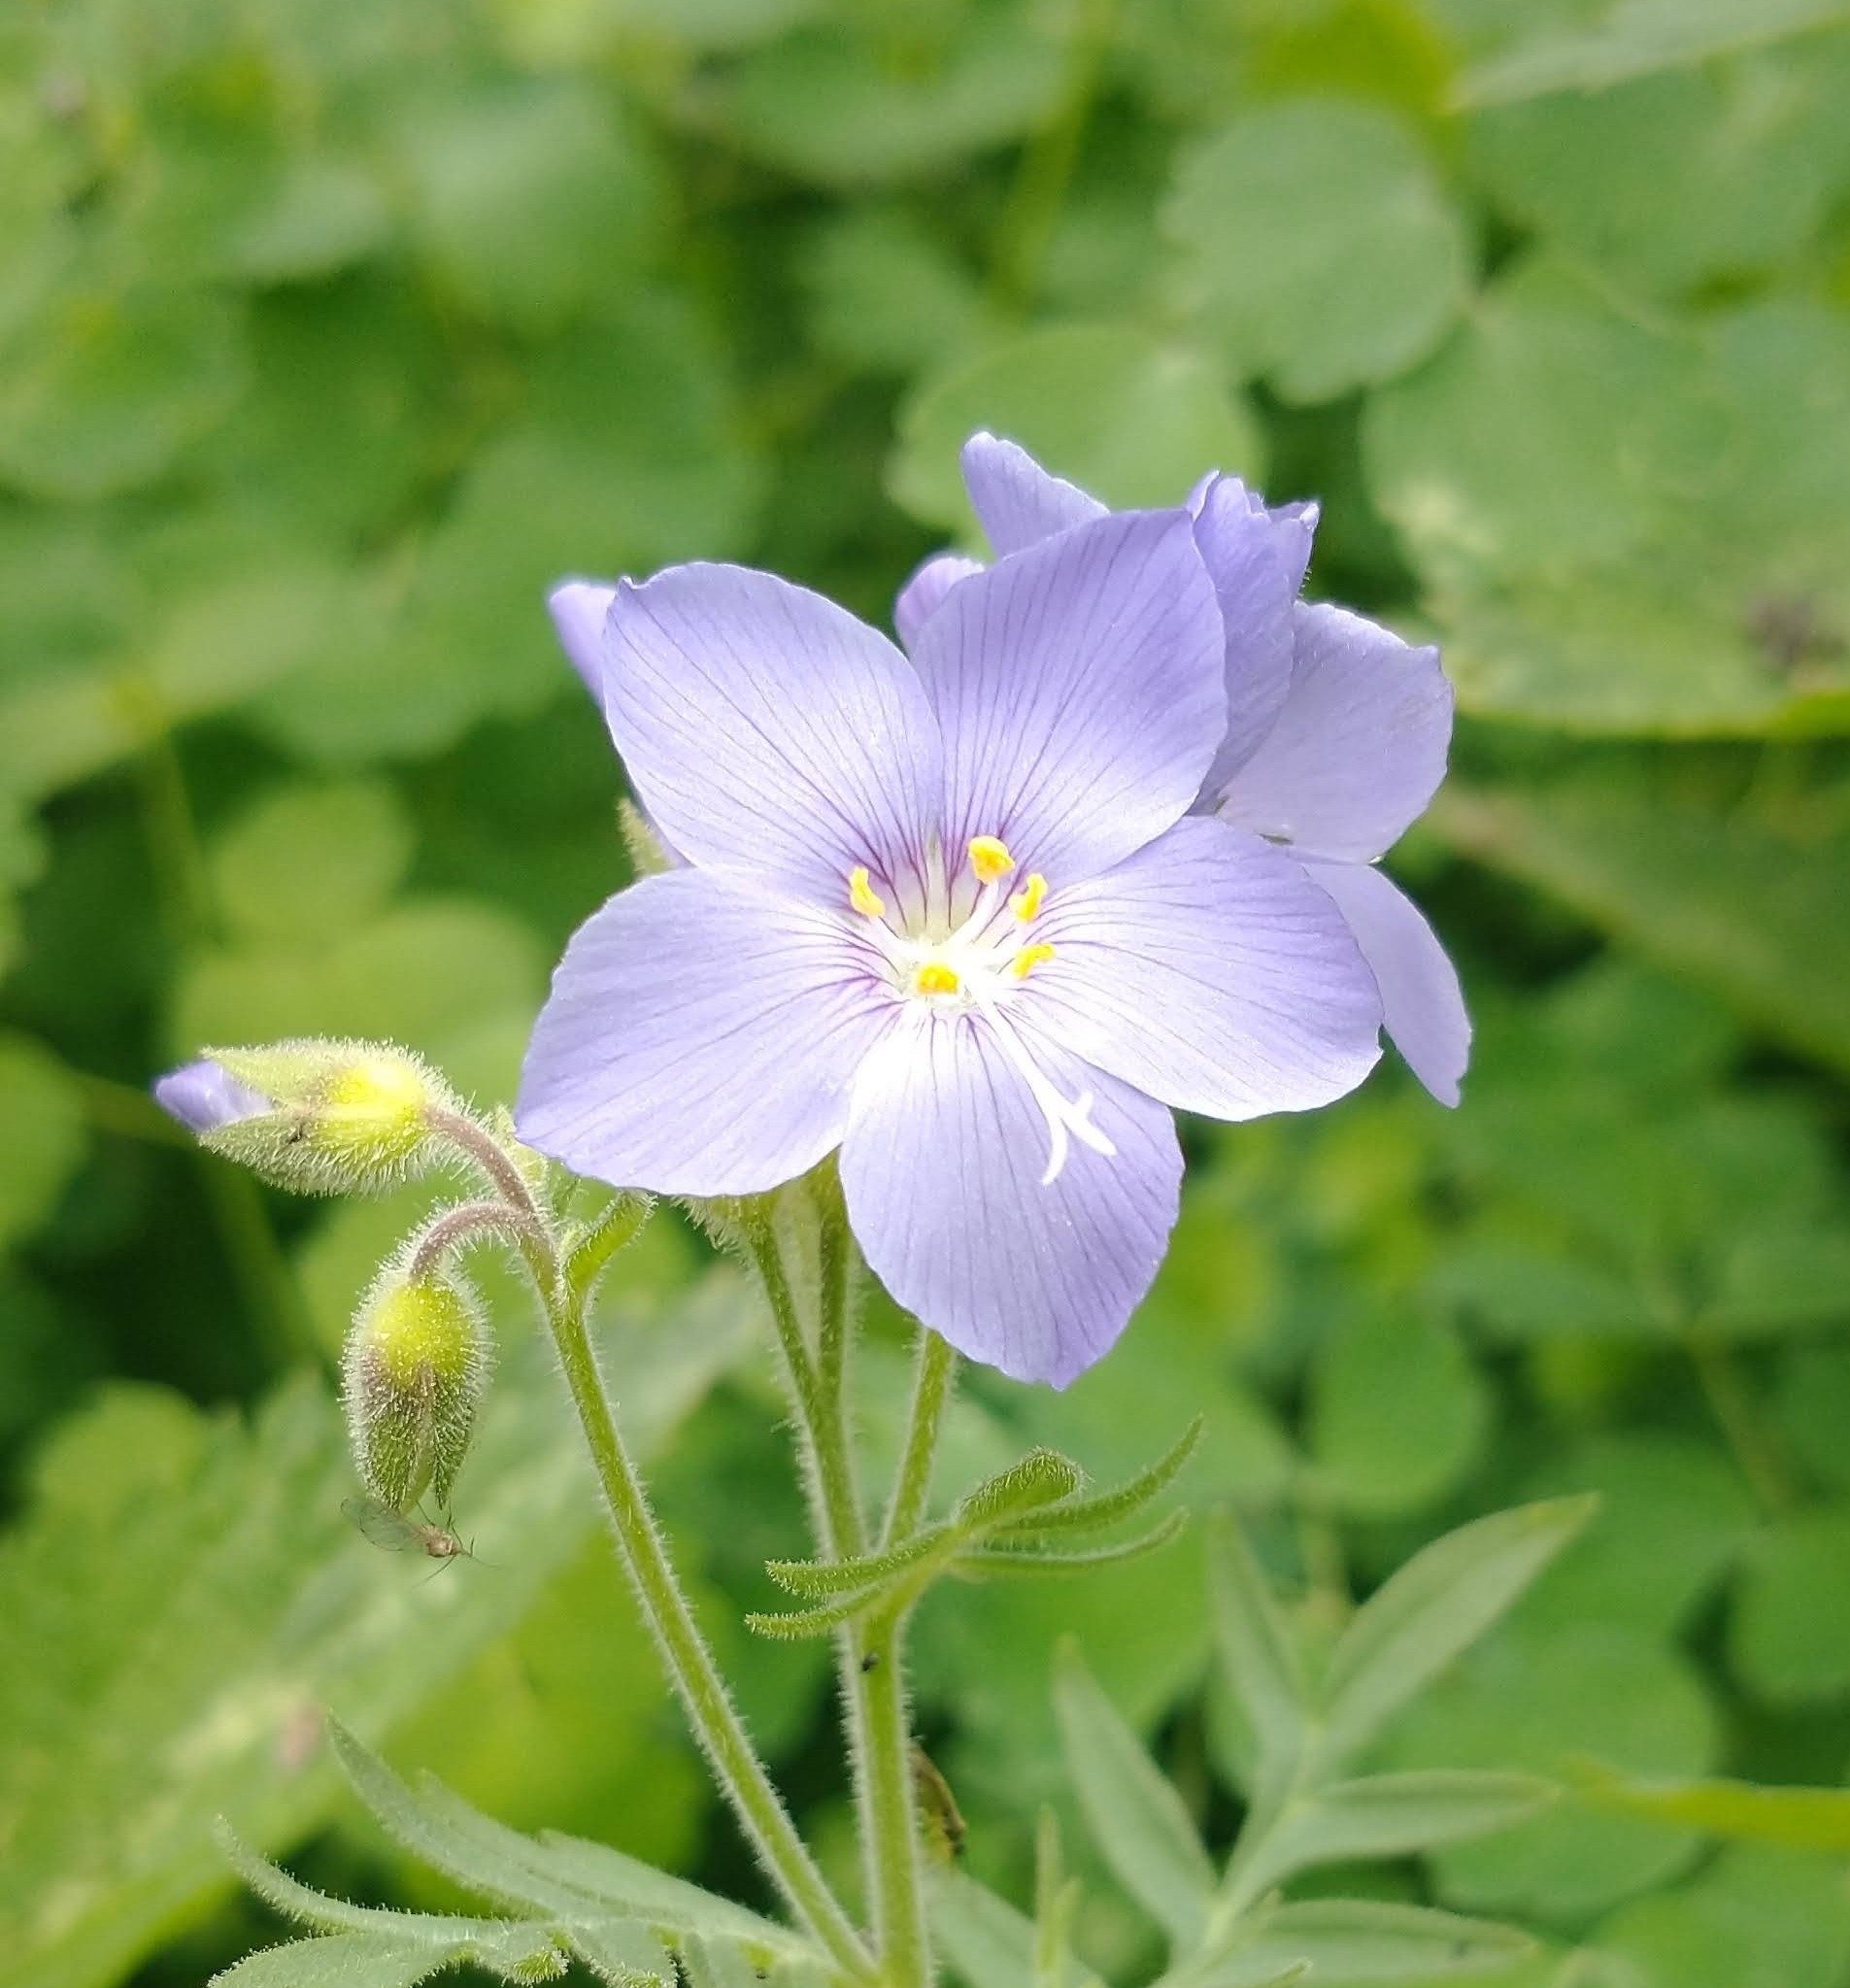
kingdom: Plantae
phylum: Tracheophyta
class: Magnoliopsida
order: Ericales
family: Polemoniaceae
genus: Polemonium
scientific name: Polemonium foliosissimum
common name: Leafy jacob's-ladder
